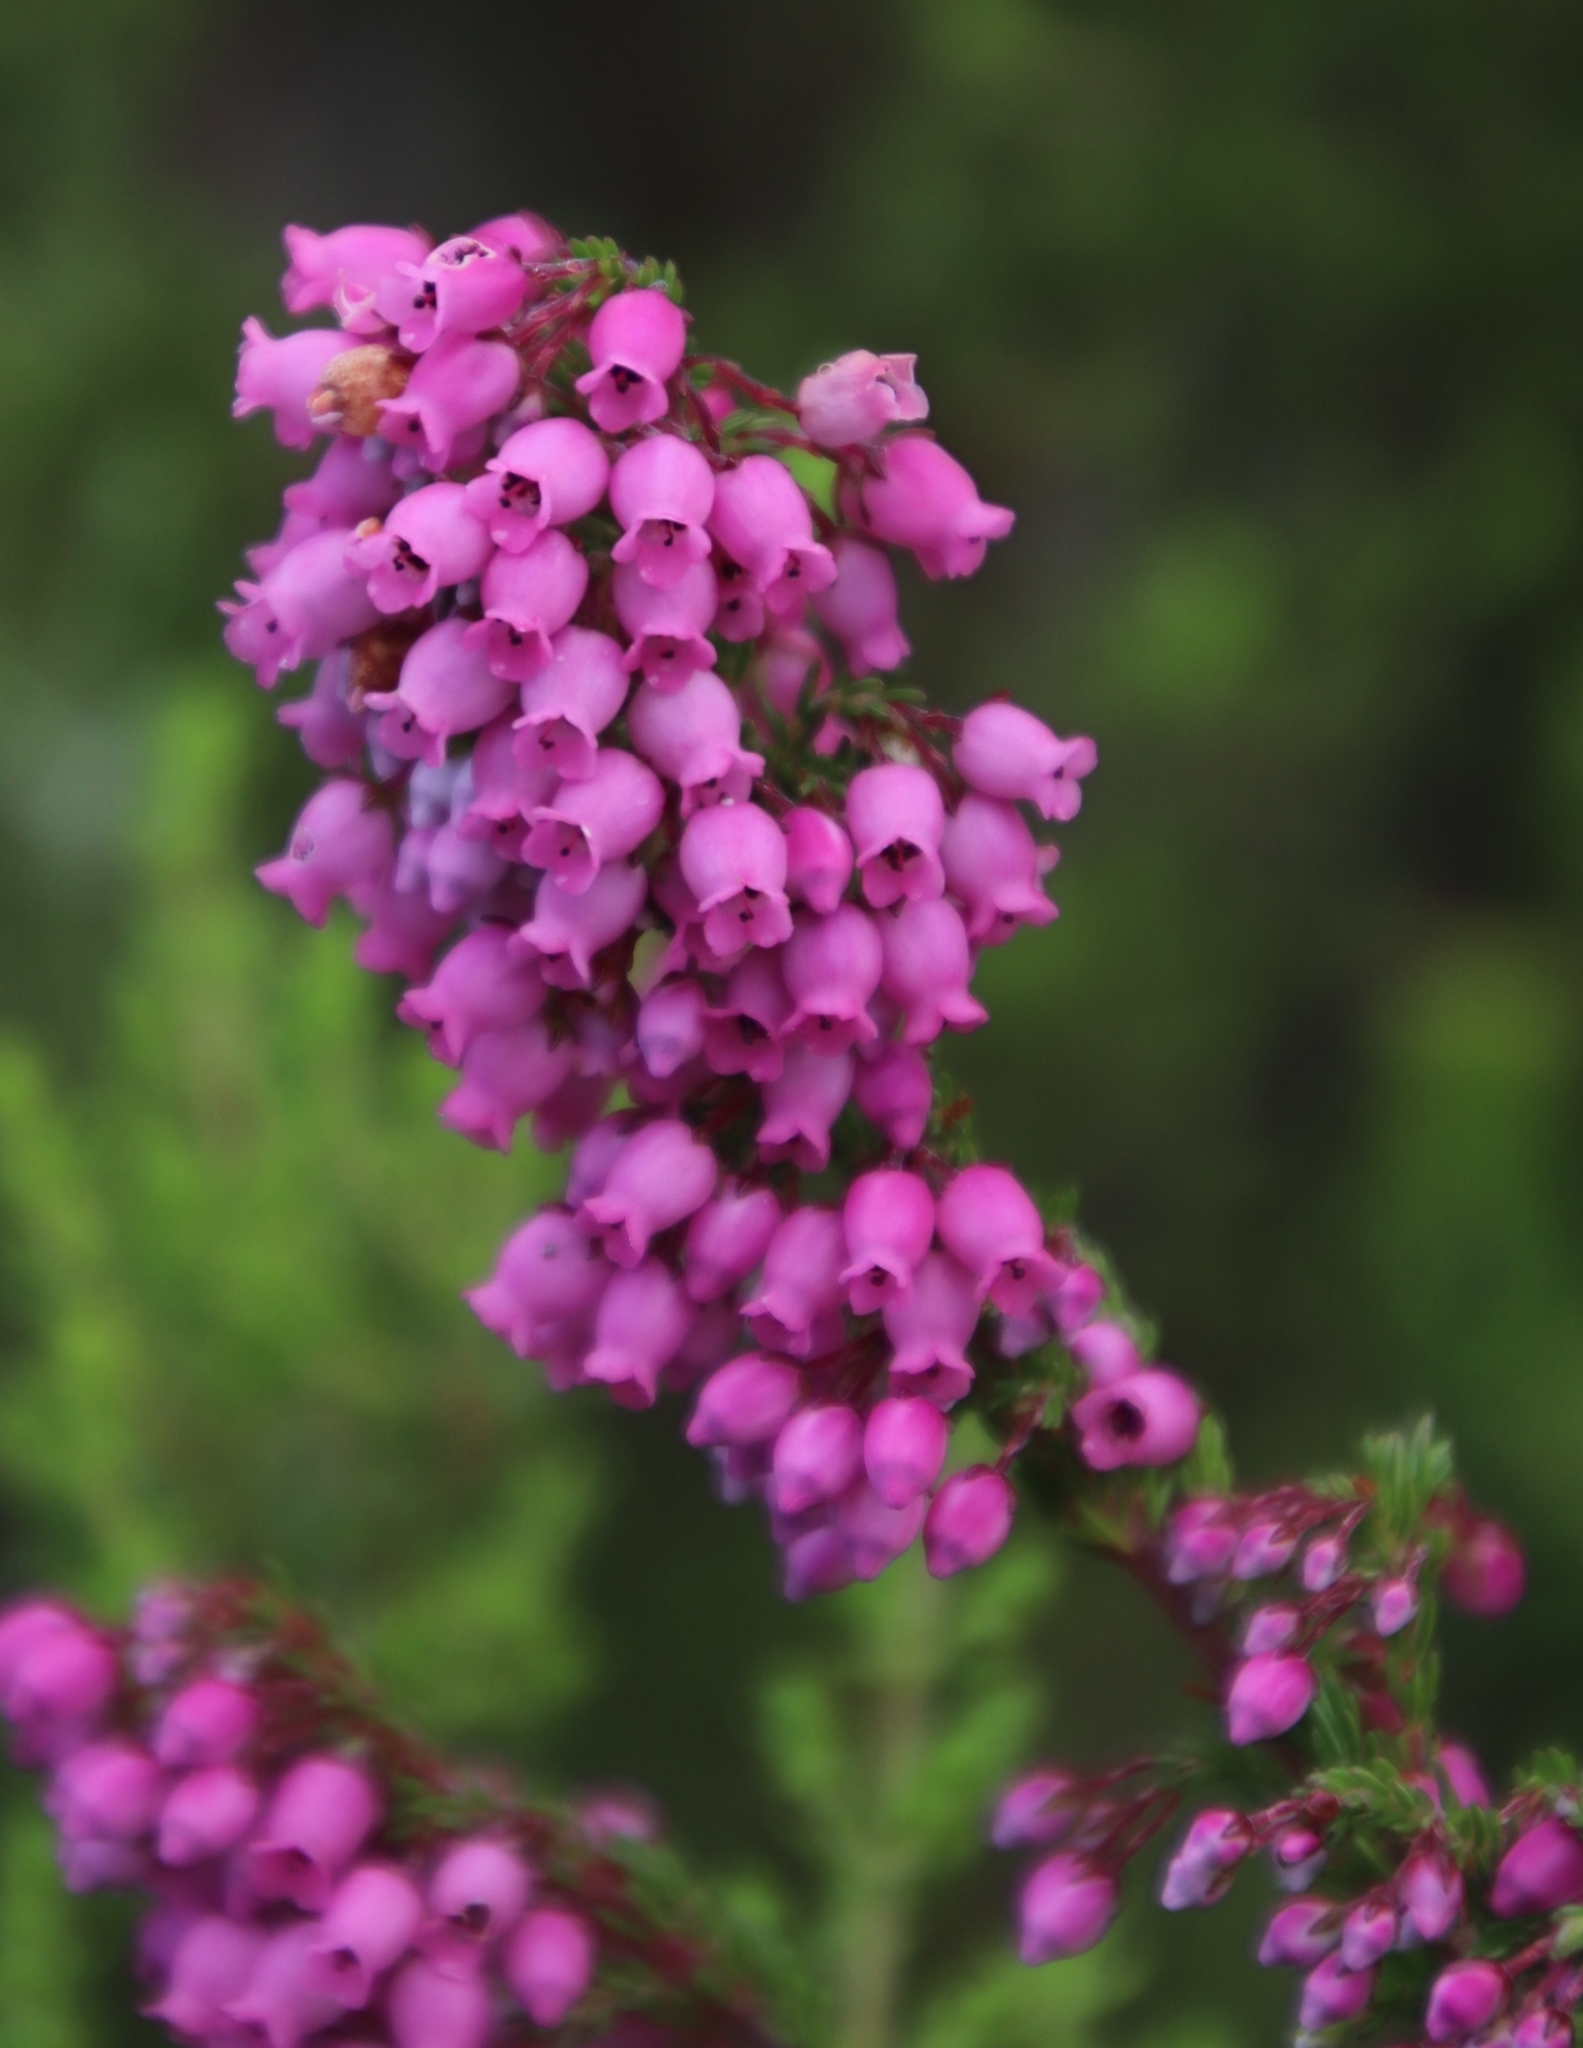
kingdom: Plantae
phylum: Tracheophyta
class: Magnoliopsida
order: Ericales
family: Ericaceae
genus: Erica
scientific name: Erica tenella
